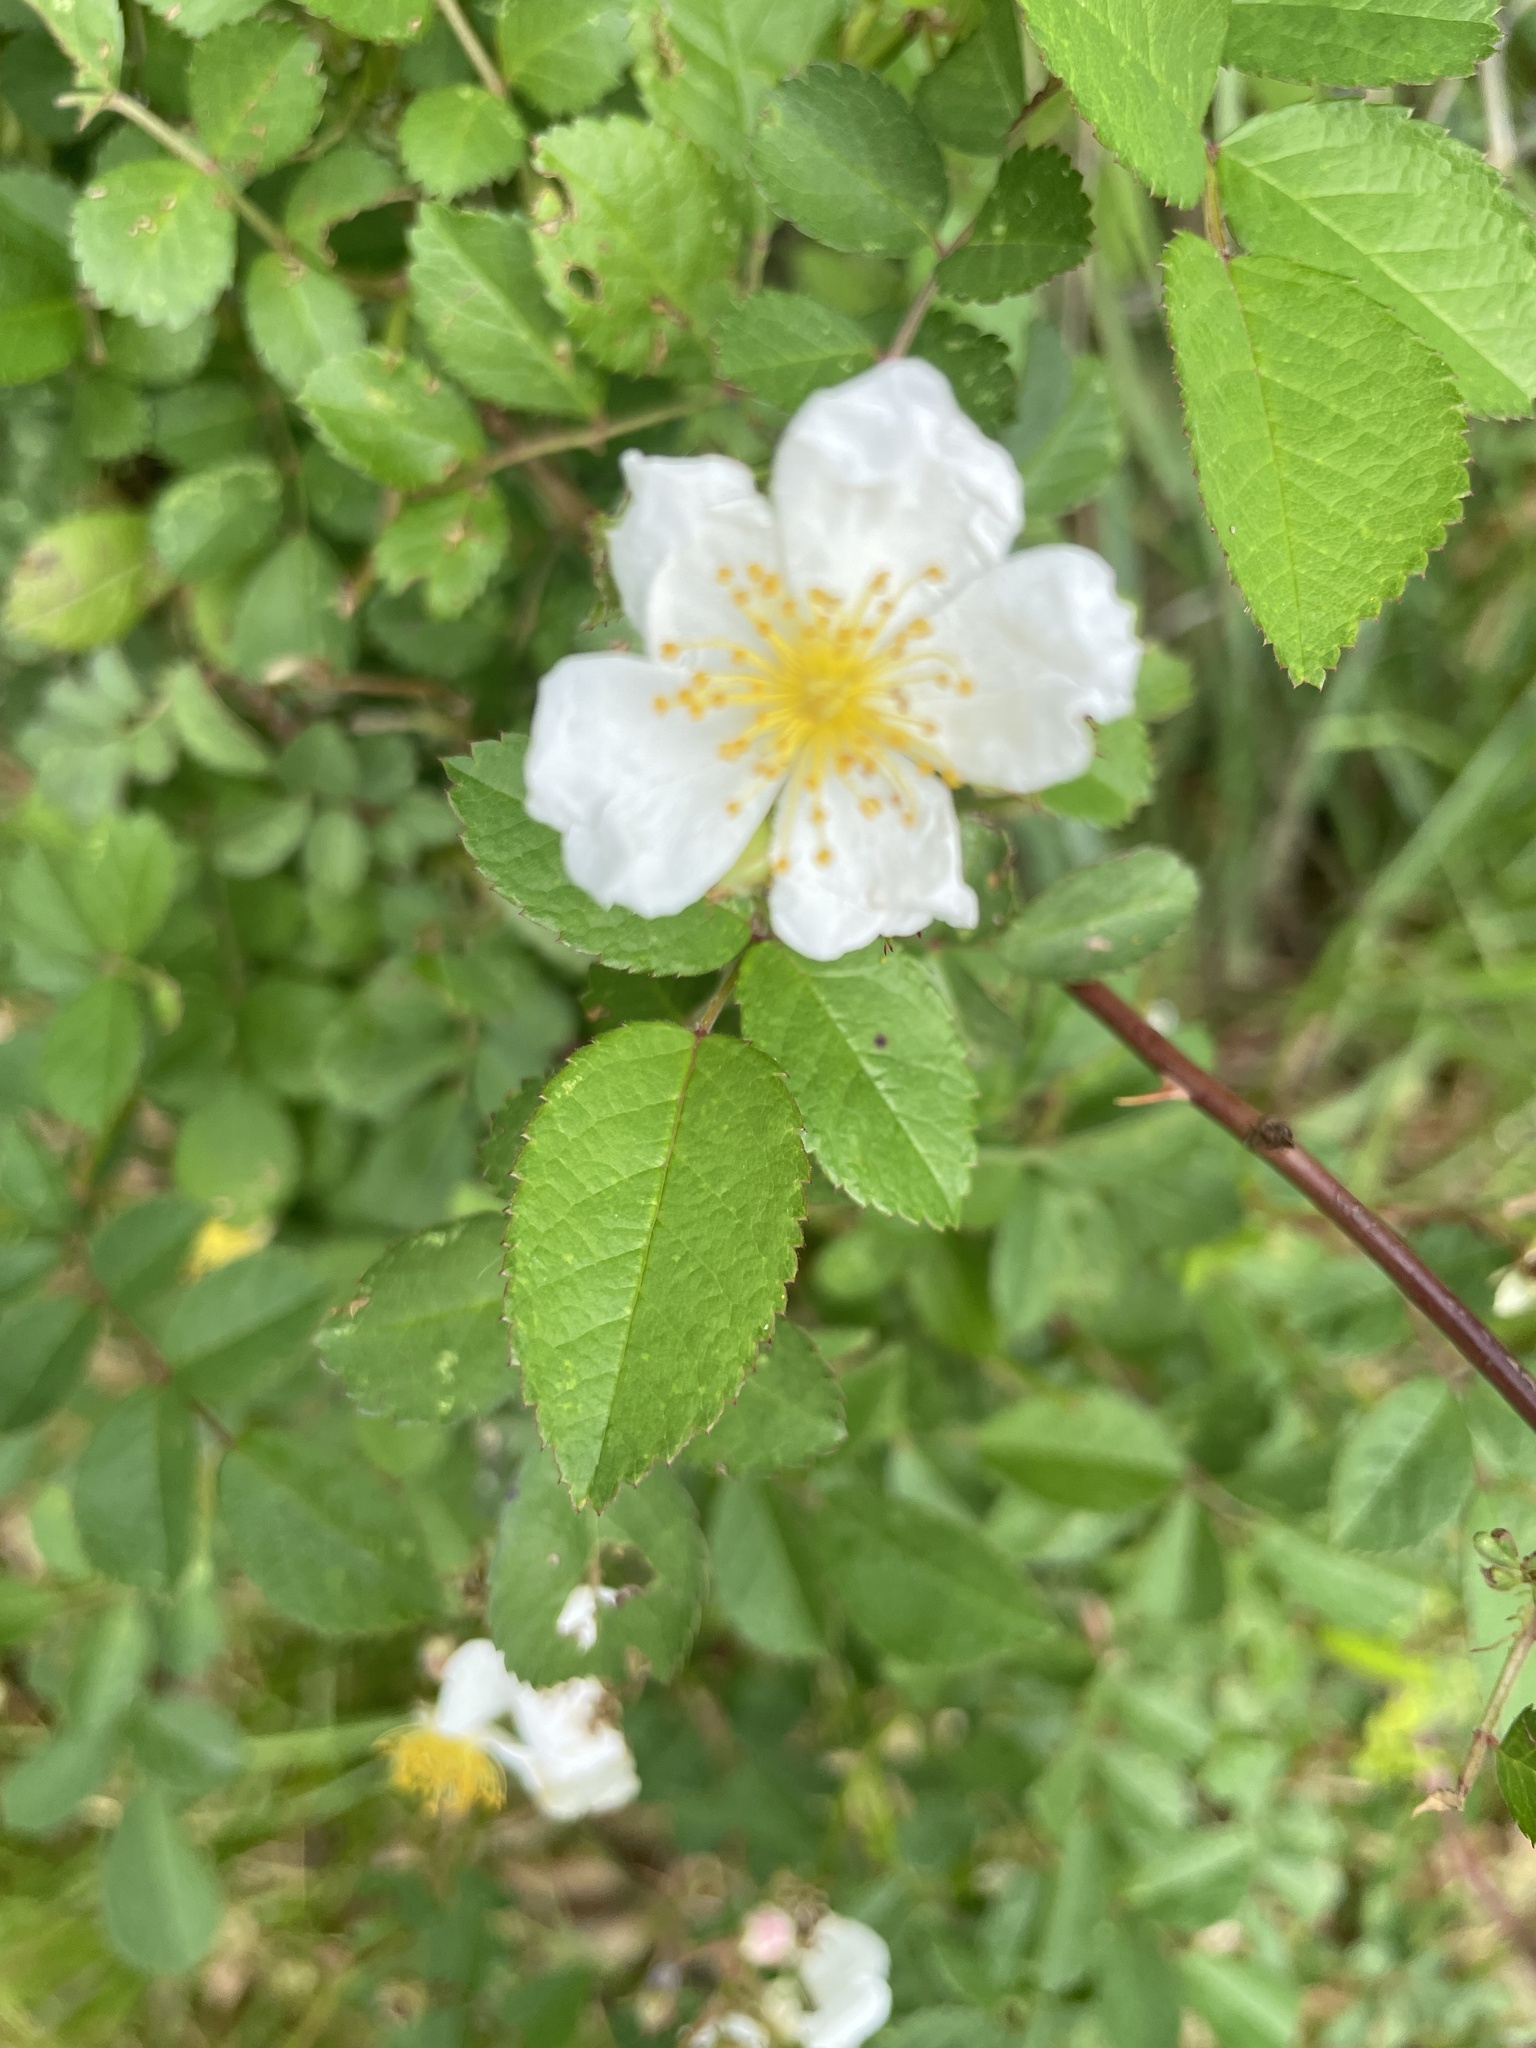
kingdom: Plantae
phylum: Tracheophyta
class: Magnoliopsida
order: Rosales
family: Rosaceae
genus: Rosa
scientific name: Rosa multiflora
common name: Multiflora rose
